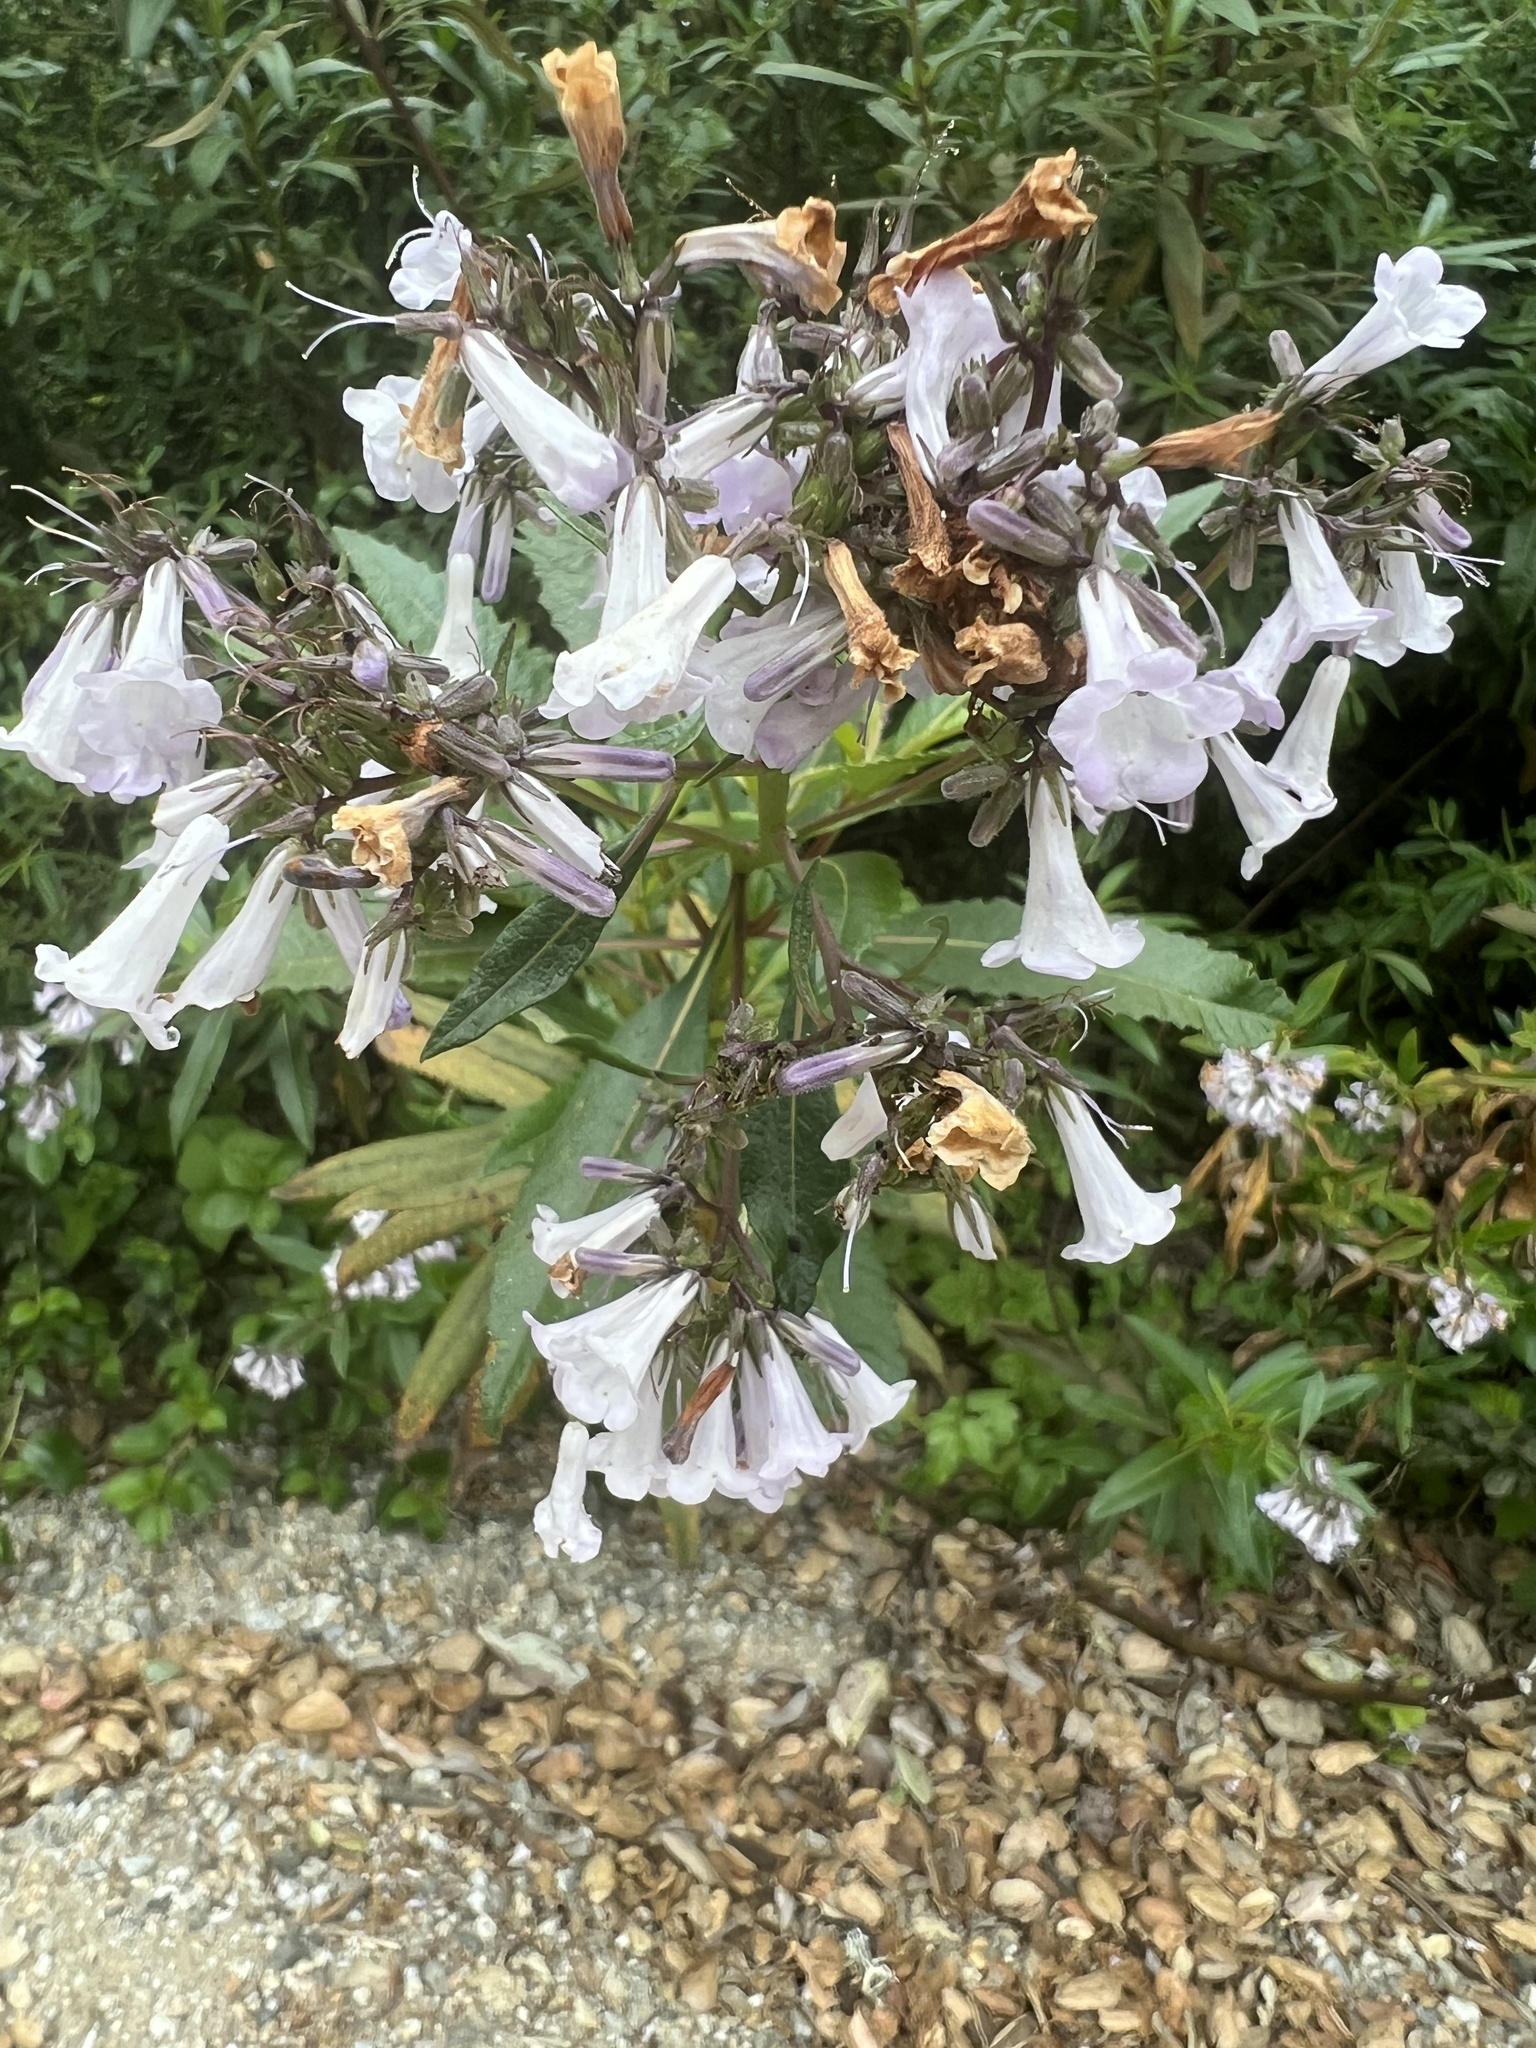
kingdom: Plantae
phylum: Tracheophyta
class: Magnoliopsida
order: Boraginales
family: Namaceae
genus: Eriodictyon
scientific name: Eriodictyon californicum
